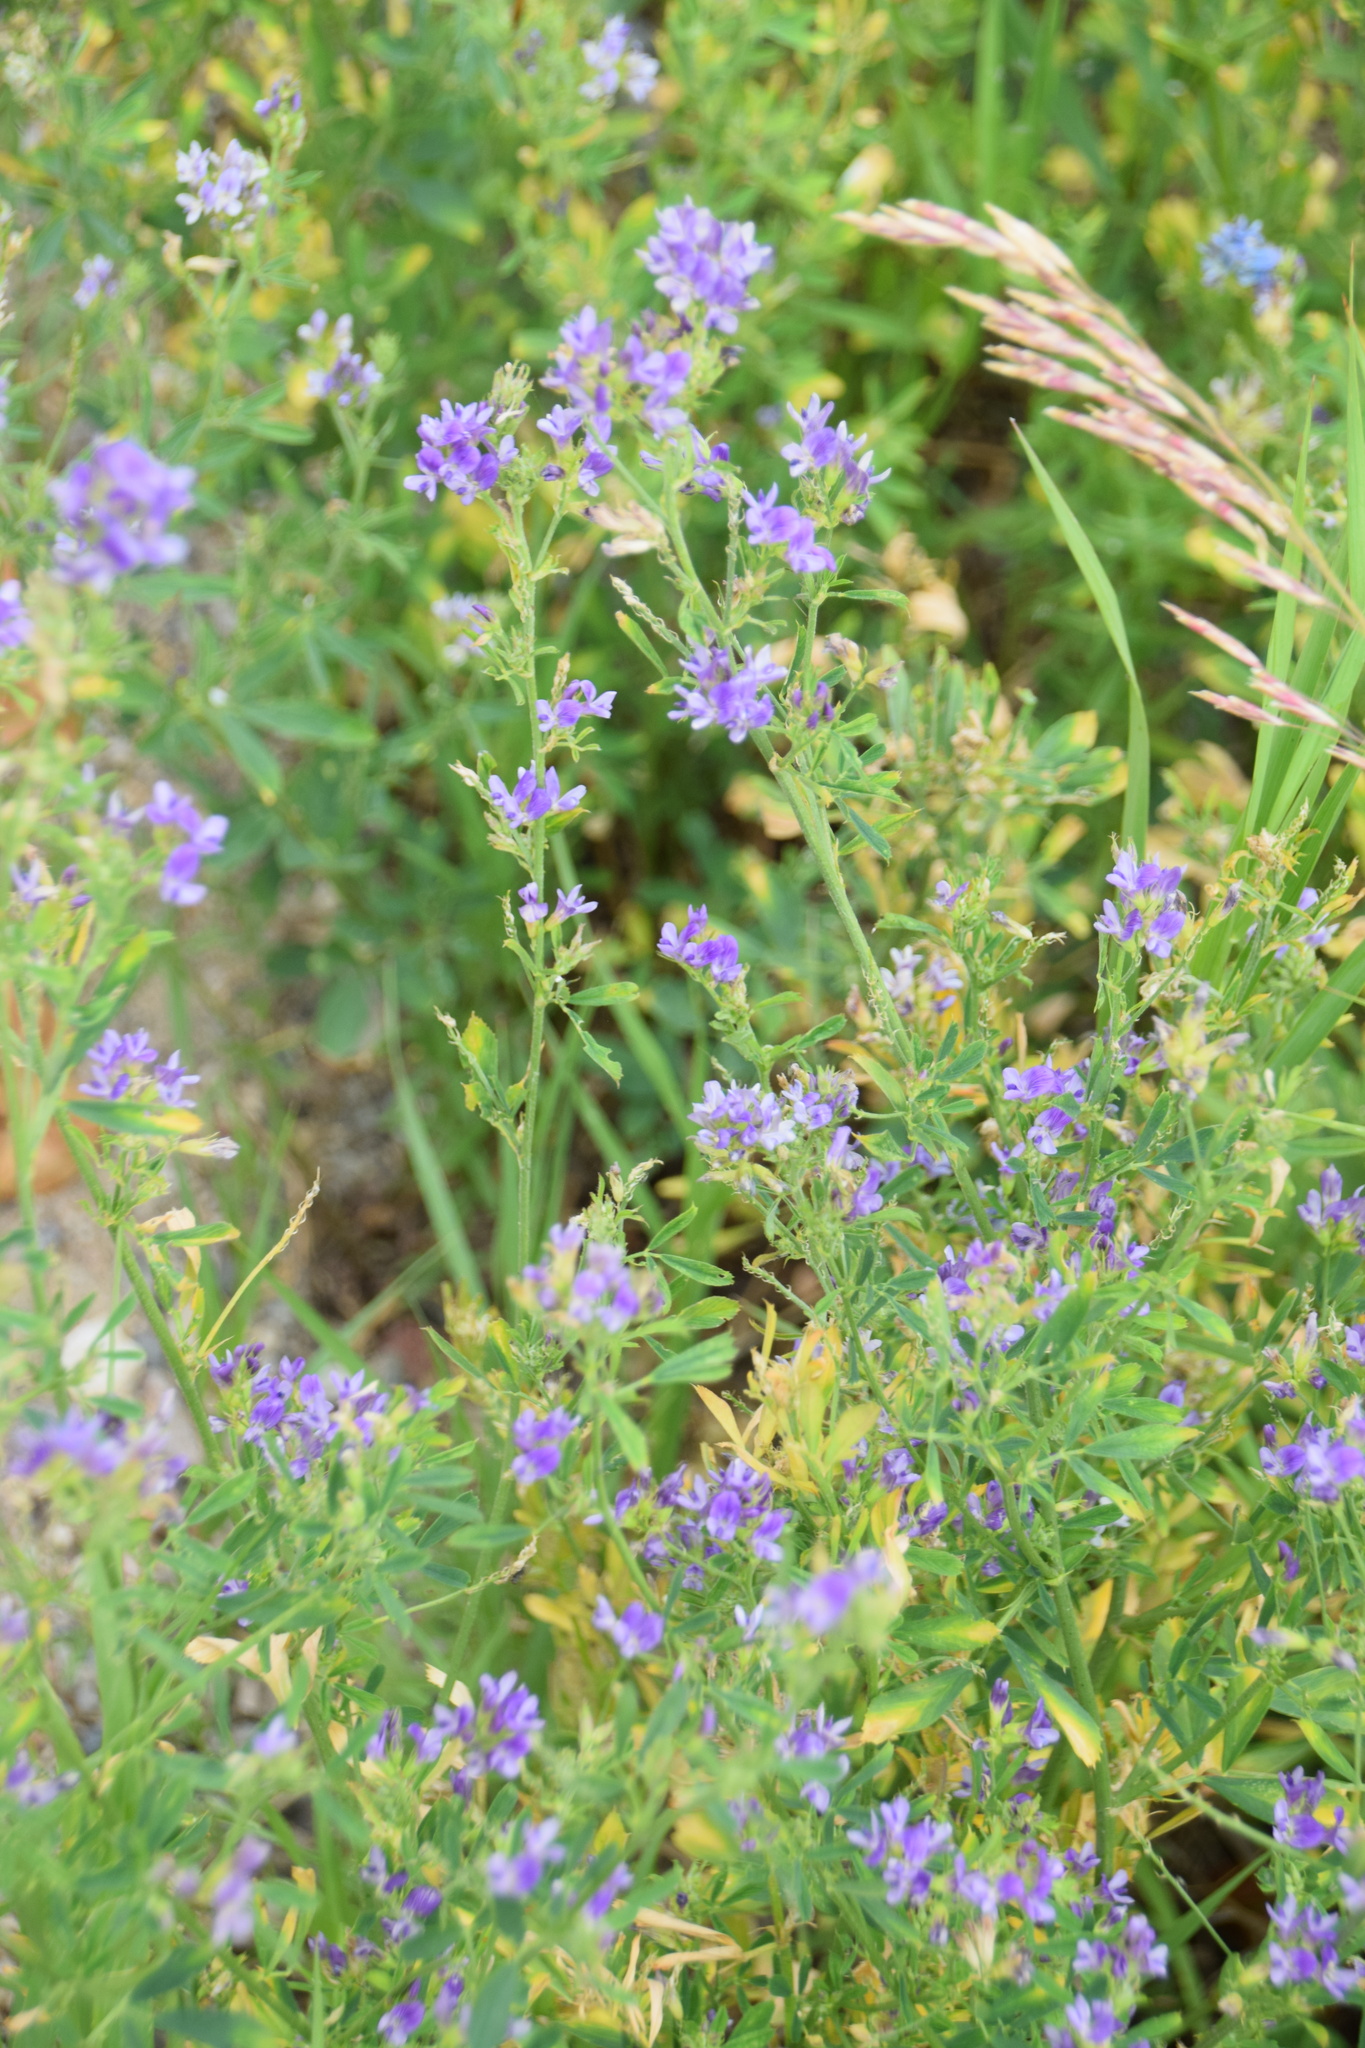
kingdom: Plantae
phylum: Tracheophyta
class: Magnoliopsida
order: Fabales
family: Fabaceae
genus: Medicago
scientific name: Medicago sativa
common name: Alfalfa
